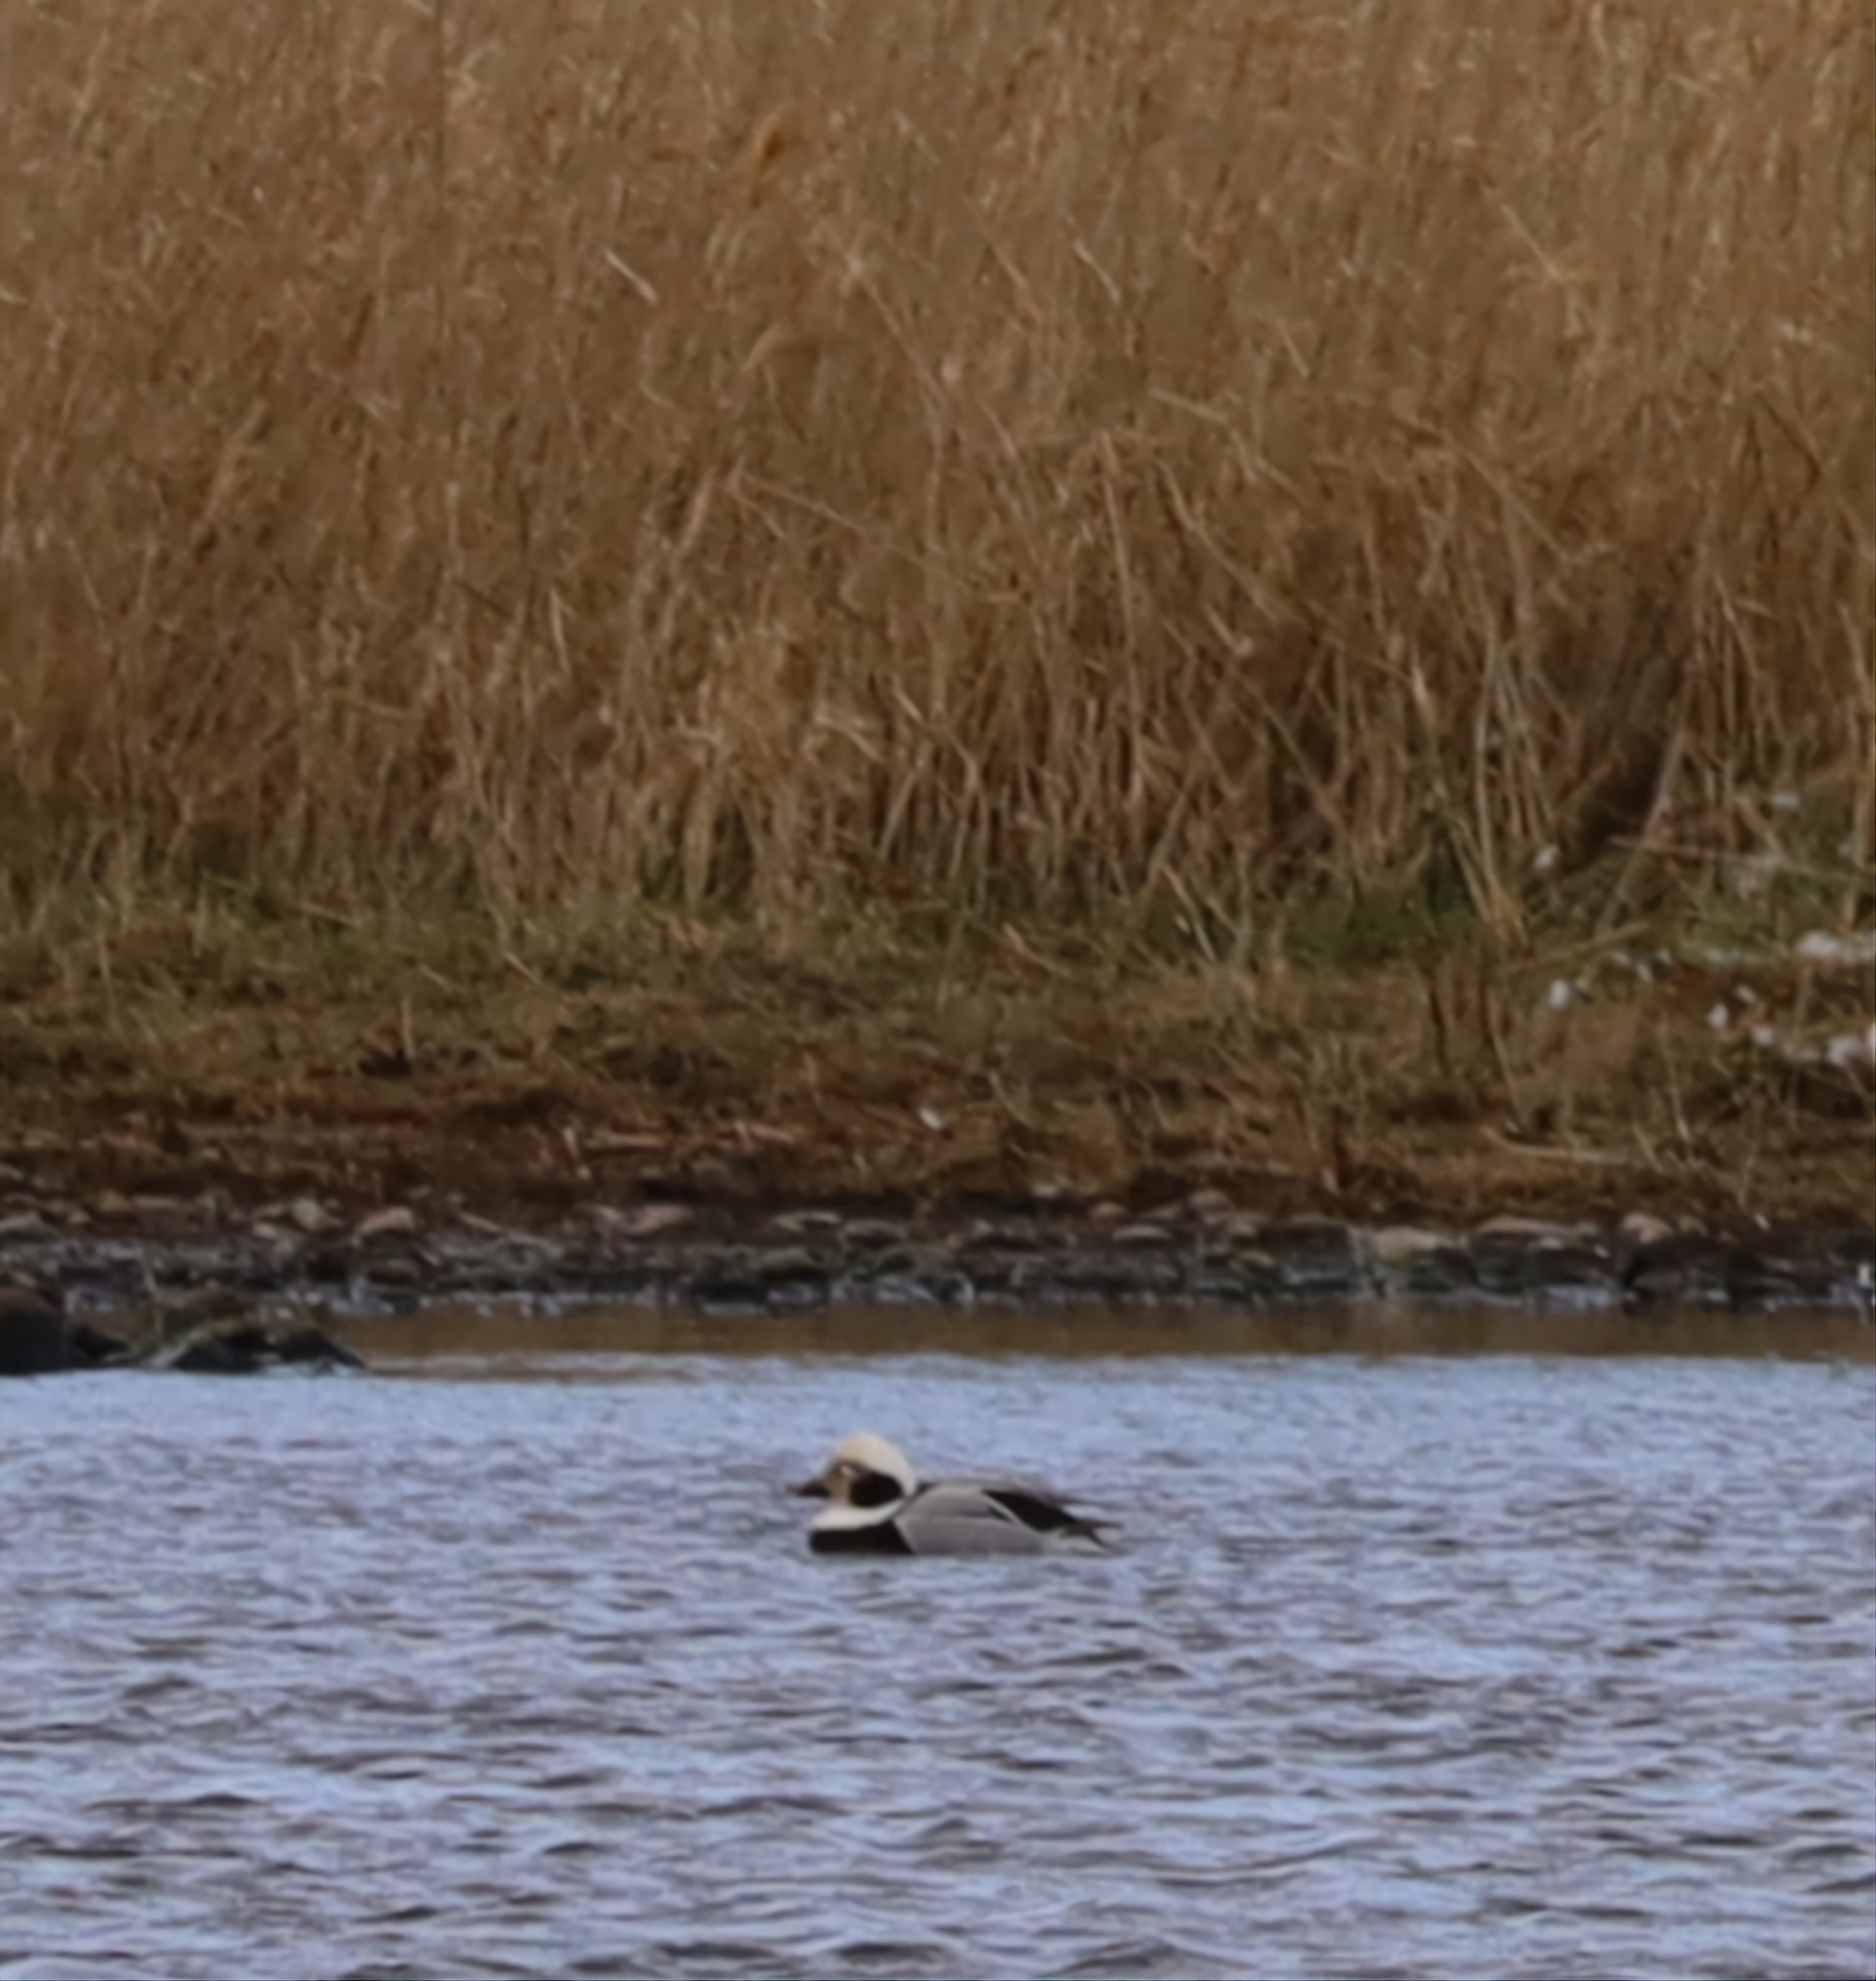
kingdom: Animalia
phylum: Chordata
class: Aves
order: Anseriformes
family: Anatidae
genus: Clangula
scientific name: Clangula hyemalis
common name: Long-tailed duck
